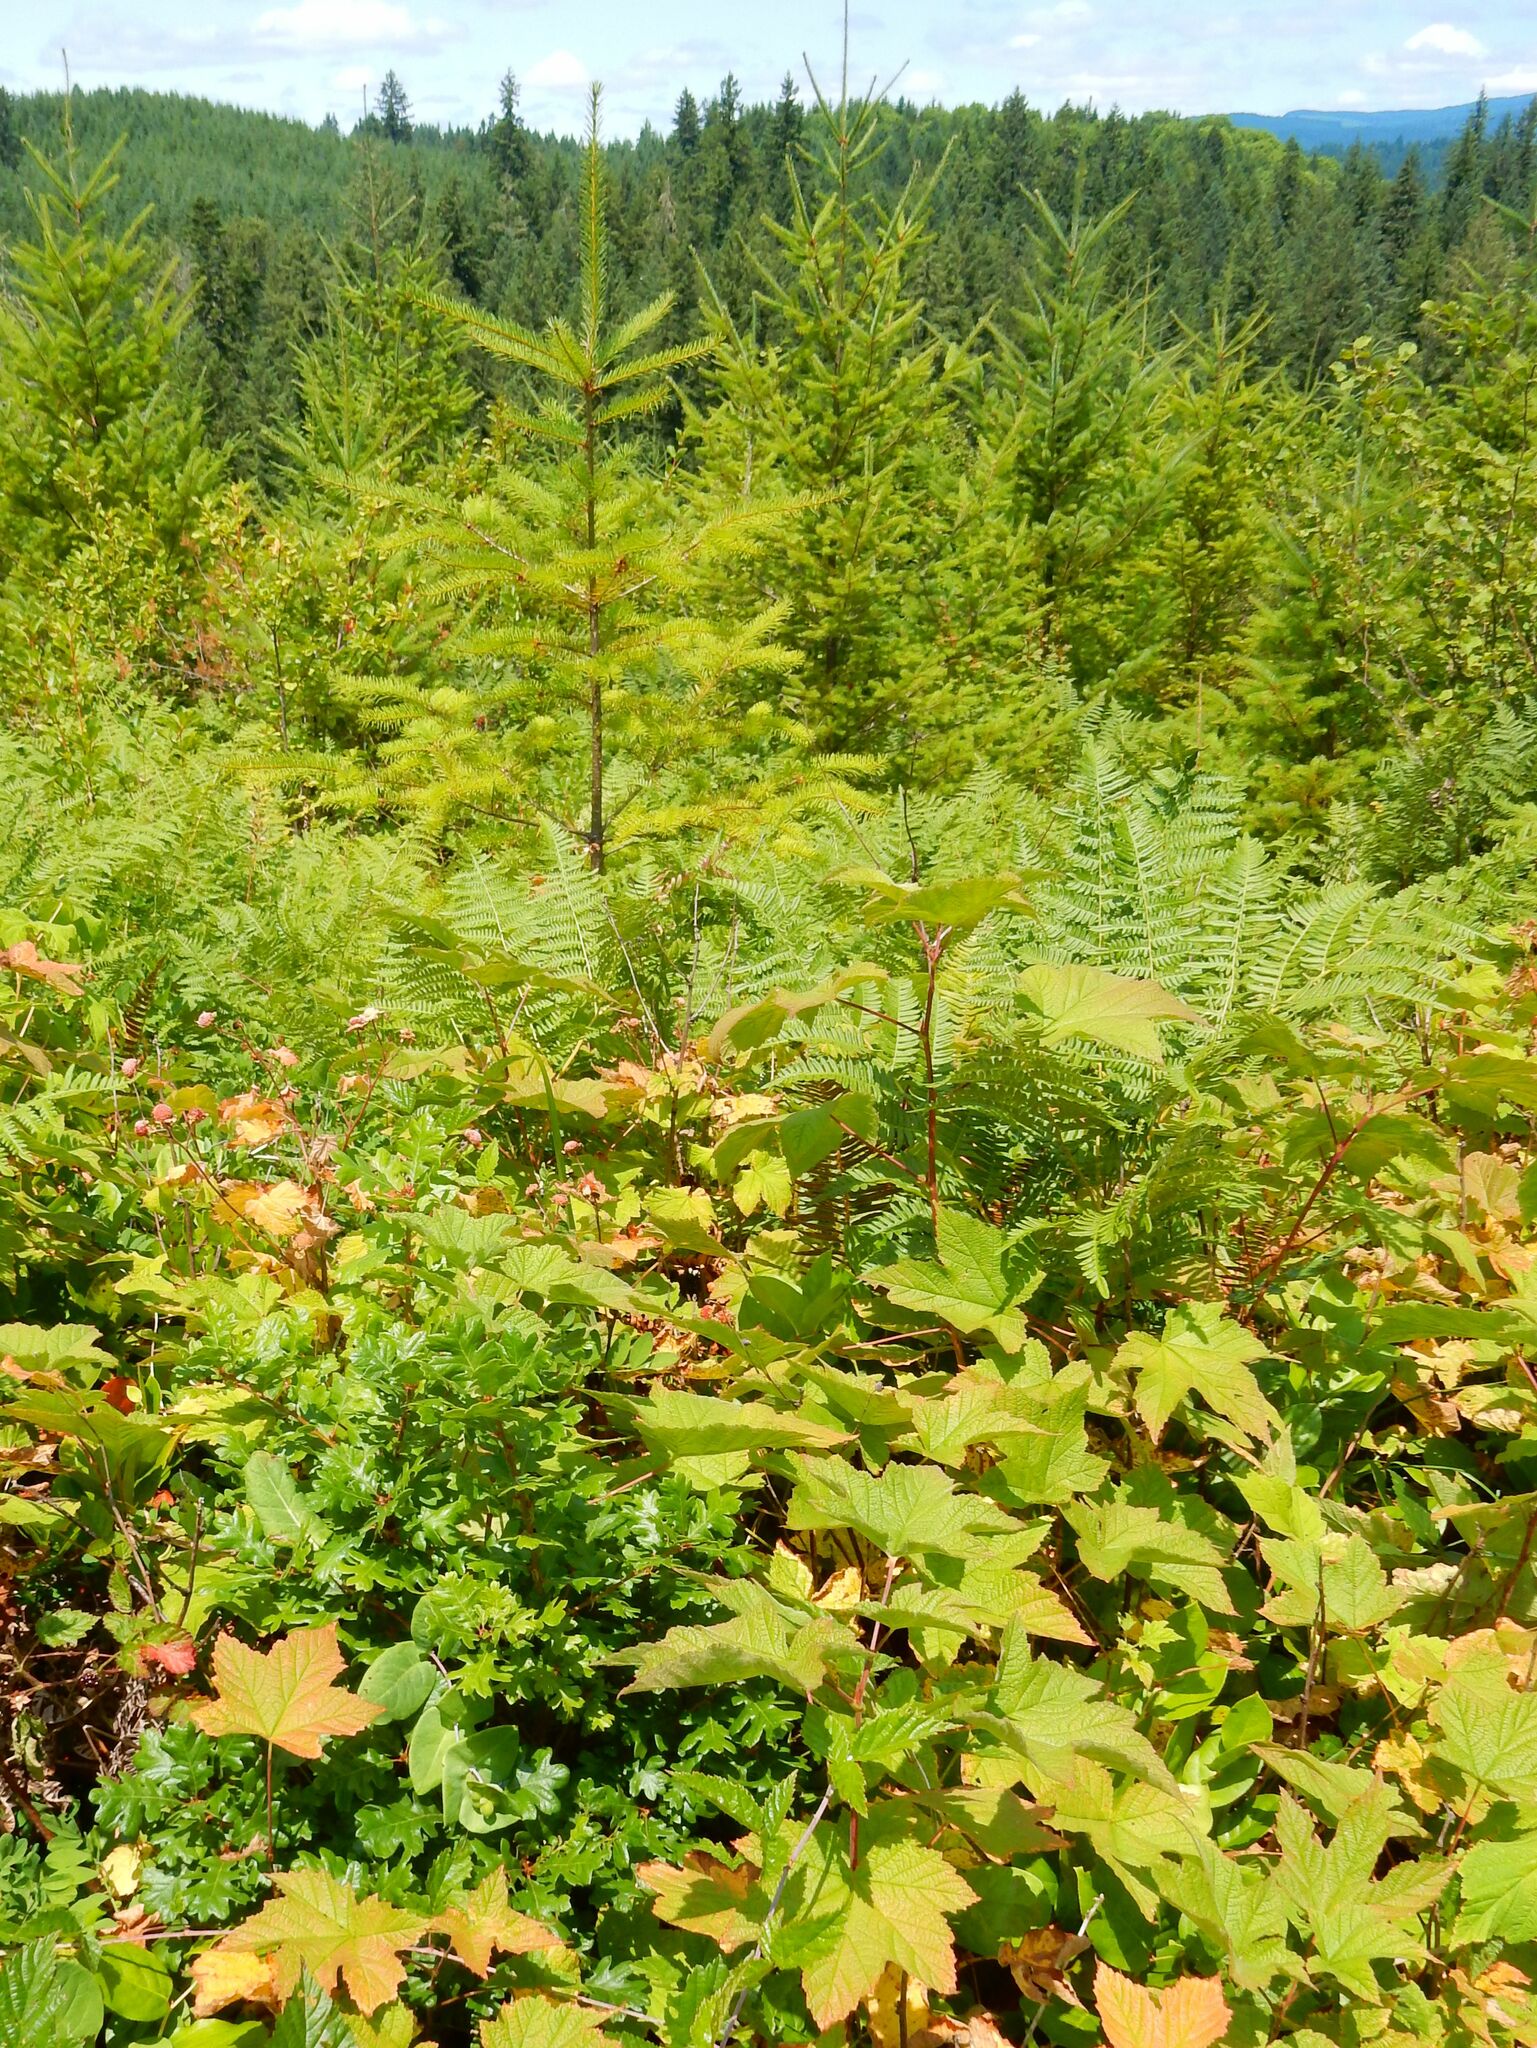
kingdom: Plantae
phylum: Tracheophyta
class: Magnoliopsida
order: Rosales
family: Rosaceae
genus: Rubus
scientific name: Rubus parviflorus
